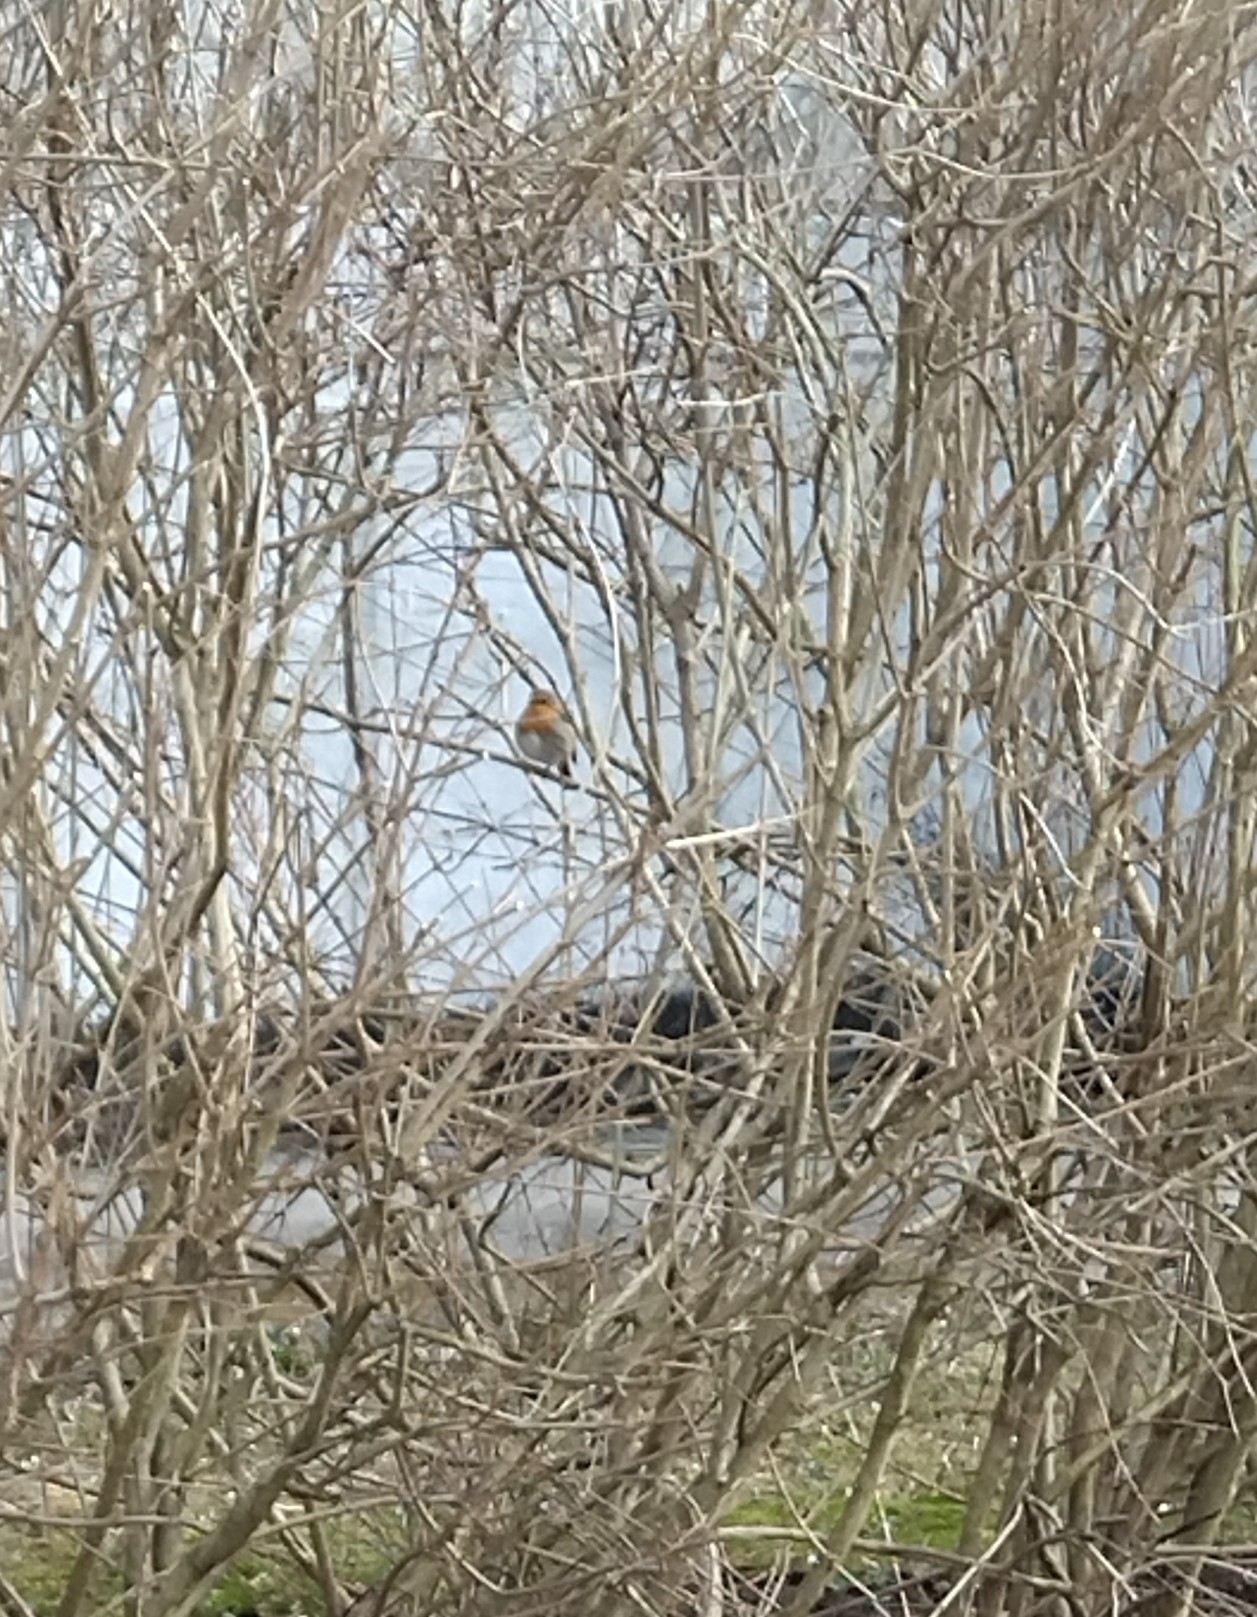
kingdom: Animalia
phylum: Chordata
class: Aves
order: Passeriformes
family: Muscicapidae
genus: Erithacus
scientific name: Erithacus rubecula
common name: European robin
